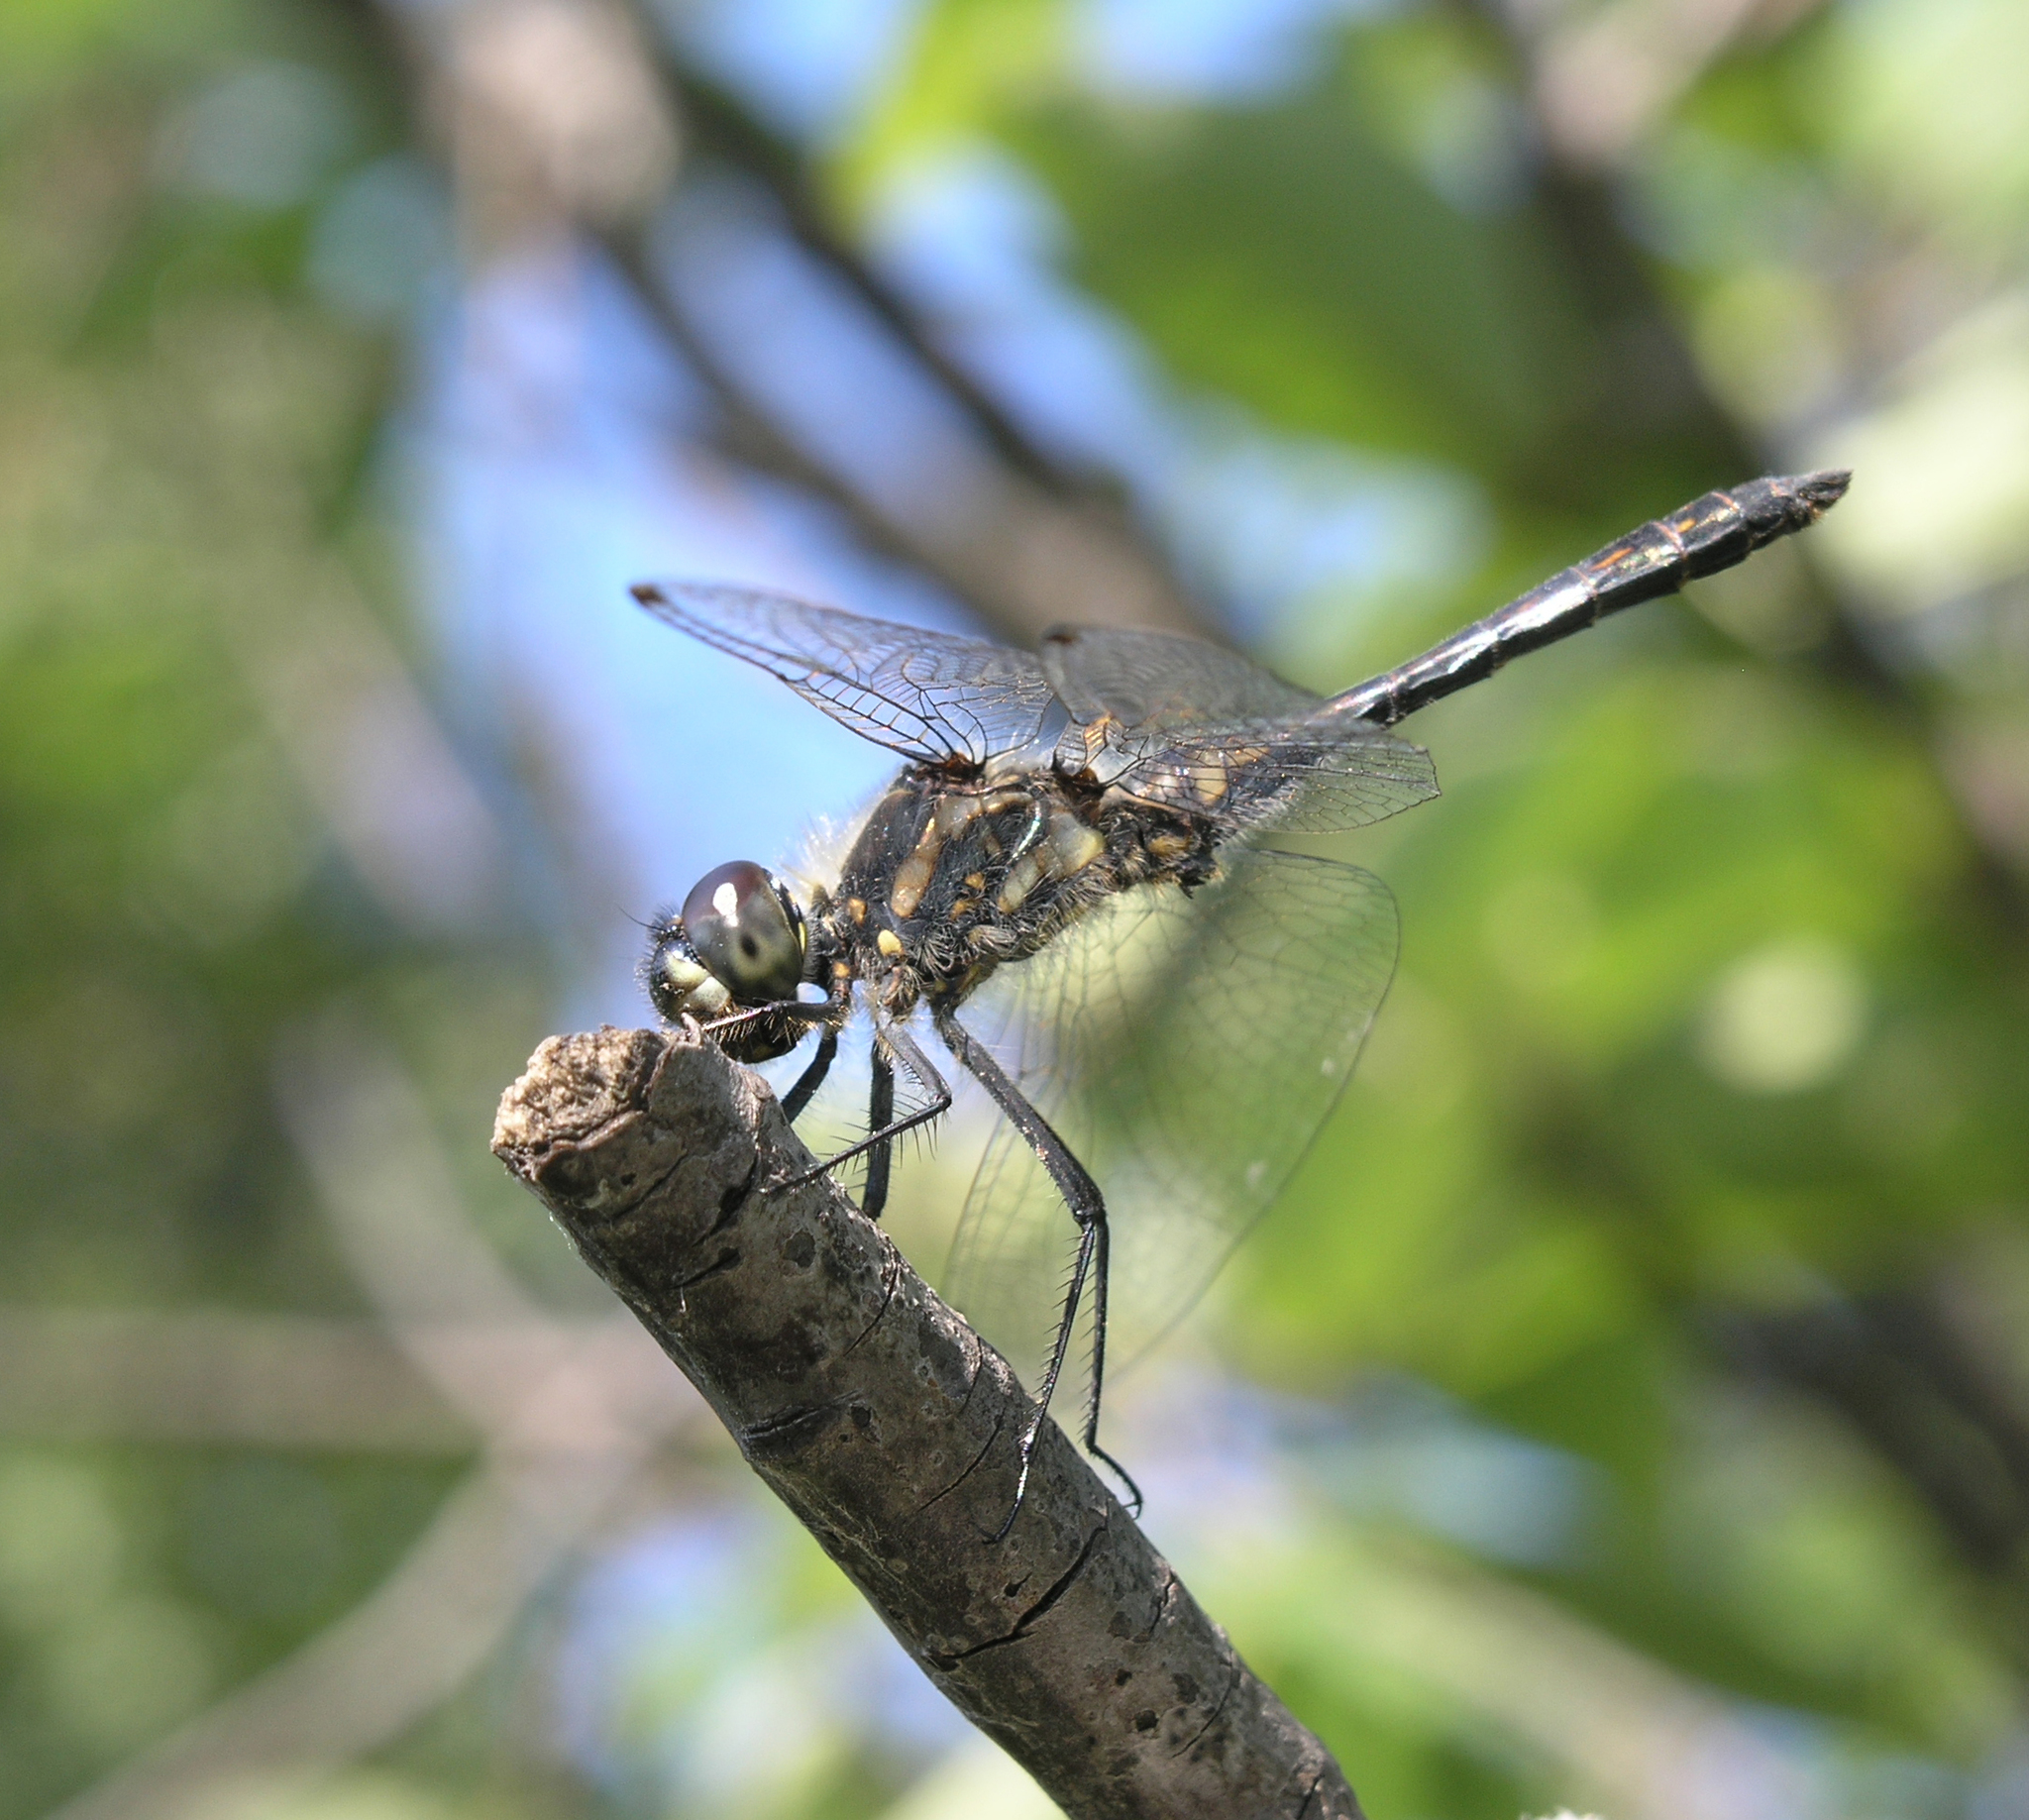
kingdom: Animalia
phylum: Arthropoda
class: Insecta
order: Odonata
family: Libellulidae
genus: Sympetrum
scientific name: Sympetrum danae
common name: Black darter
